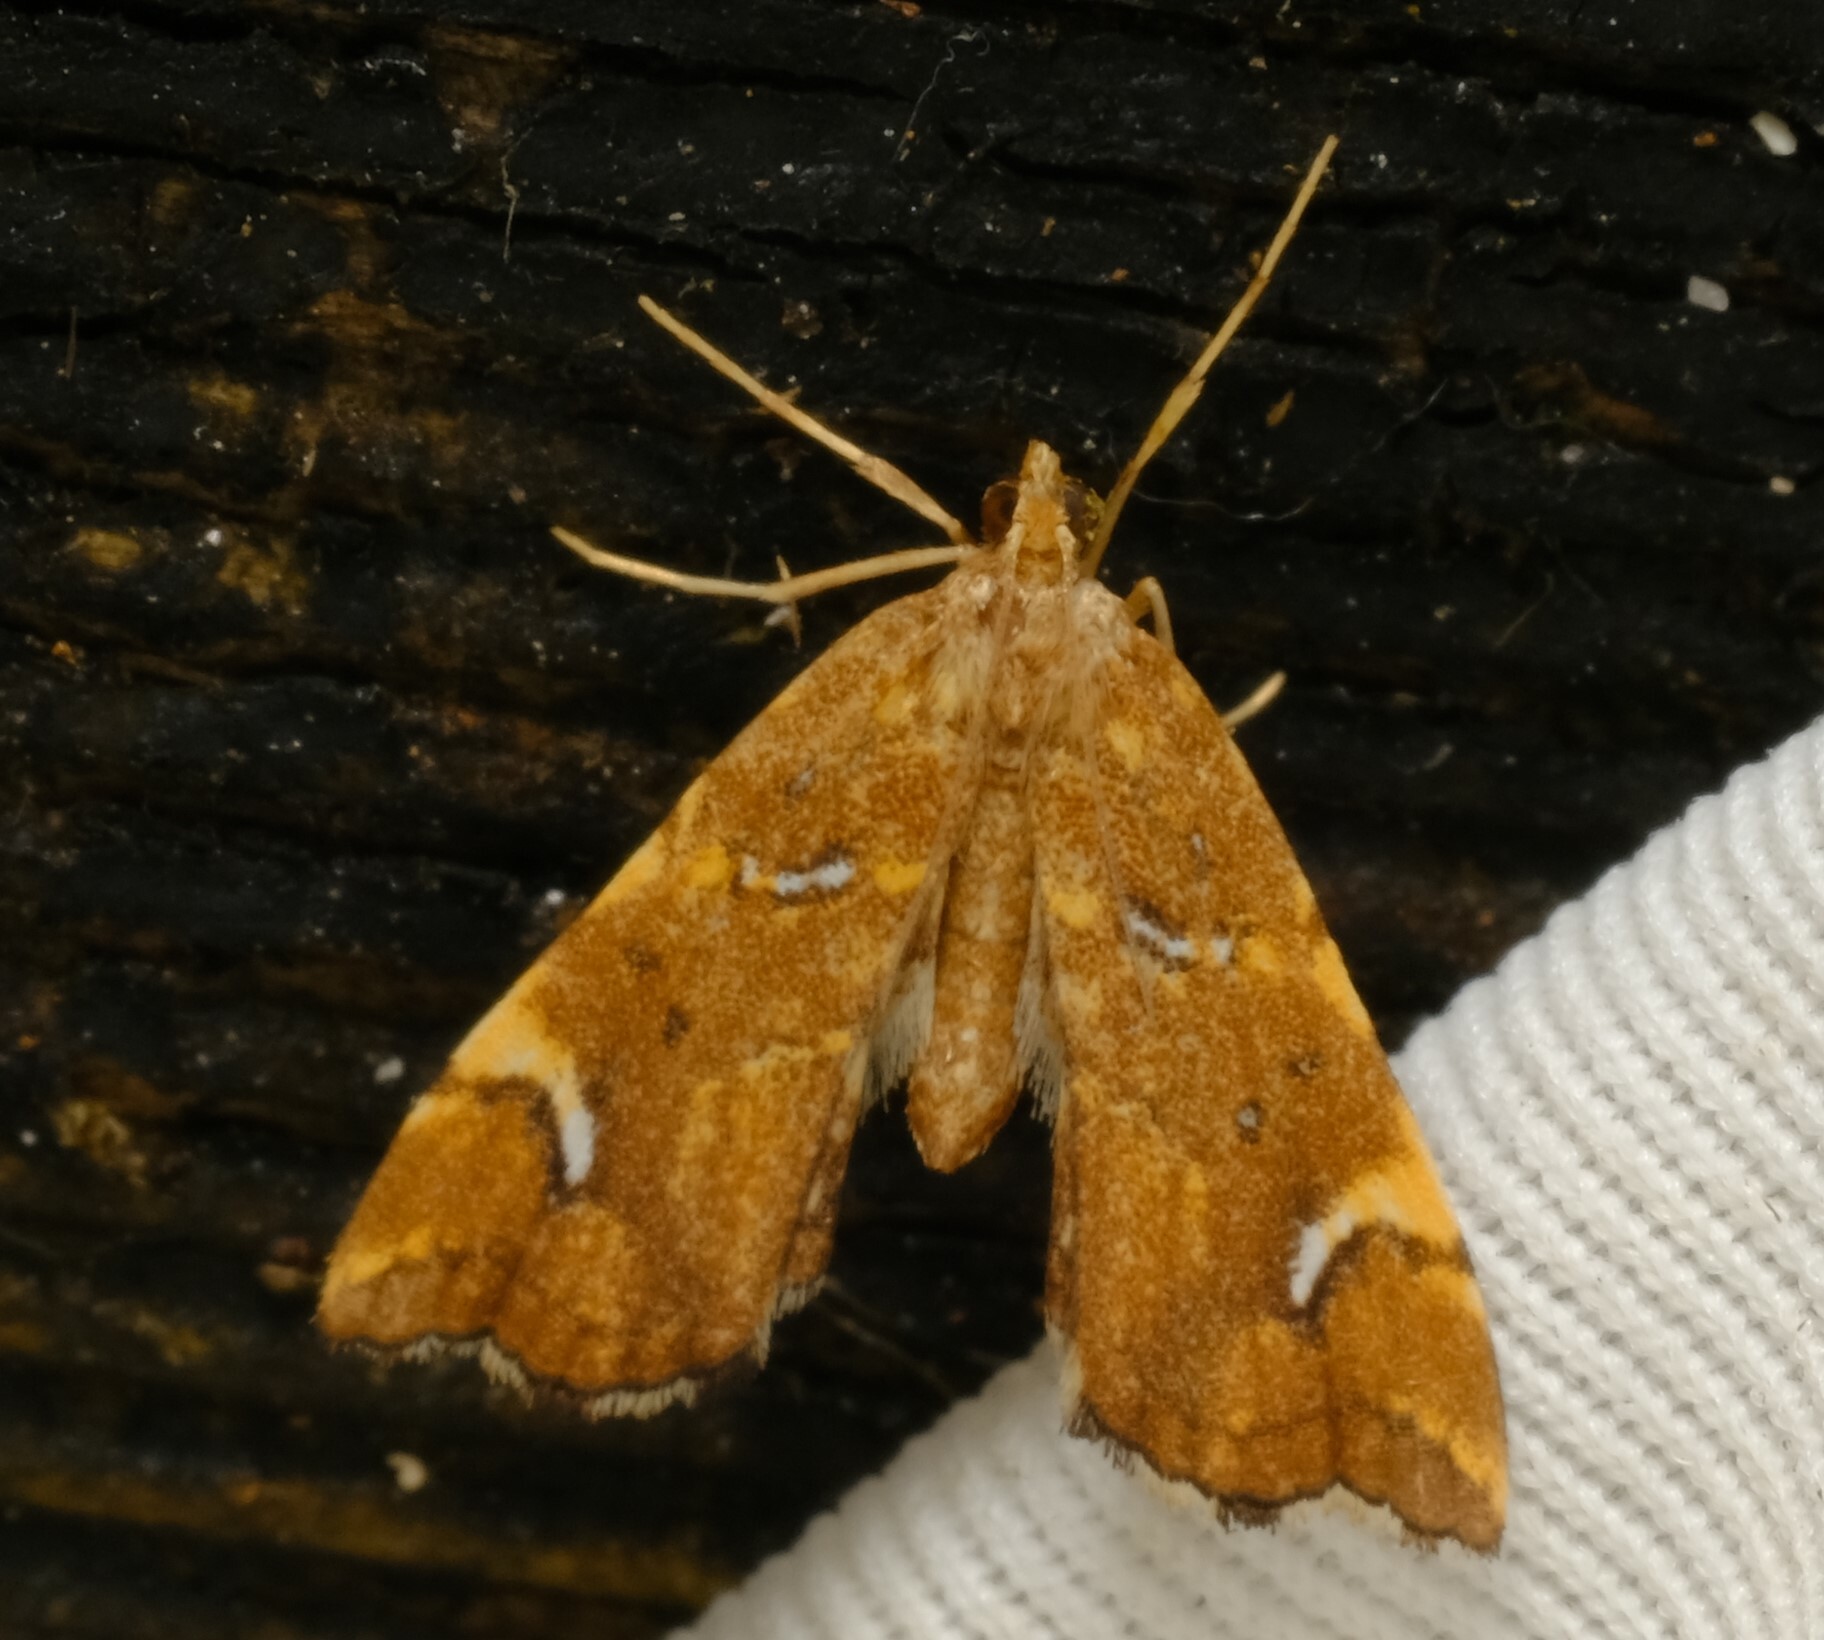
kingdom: Animalia
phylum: Arthropoda
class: Insecta
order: Lepidoptera
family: Pyralidae
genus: Musotima
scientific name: Musotima nitidalis
